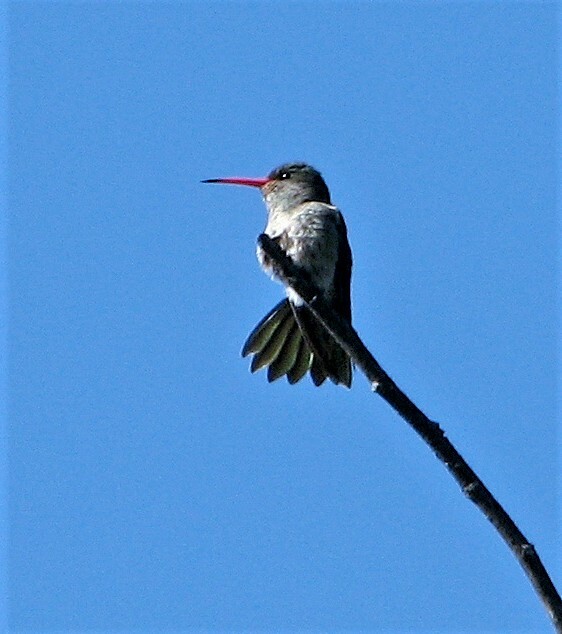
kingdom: Animalia
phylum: Chordata
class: Aves
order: Apodiformes
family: Trochilidae
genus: Hylocharis
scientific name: Hylocharis chrysura
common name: Gilded sapphire
